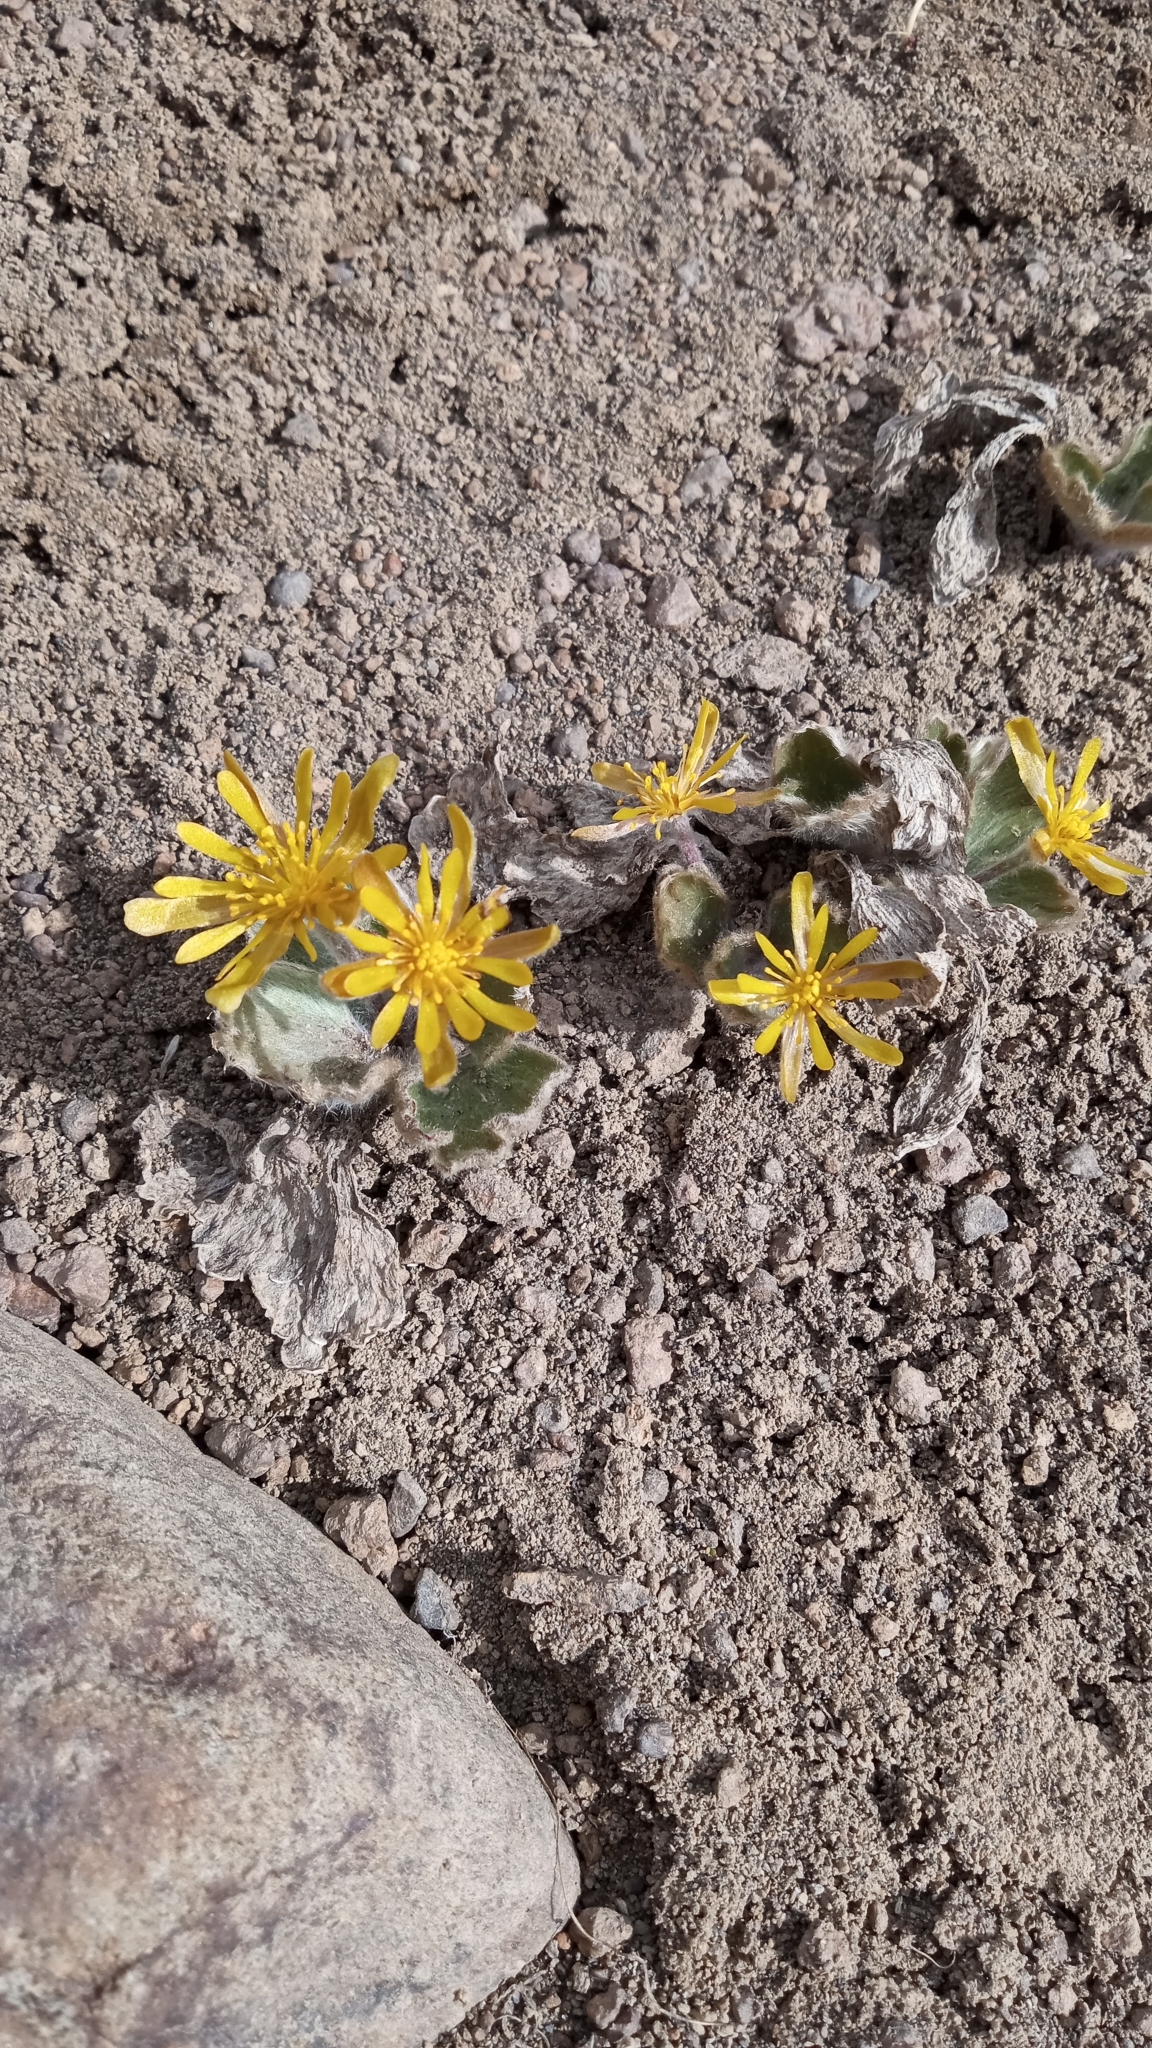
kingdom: Plantae
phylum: Tracheophyta
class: Magnoliopsida
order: Ranunculales
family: Ranunculaceae
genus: Hamadryas
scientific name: Hamadryas kingii
